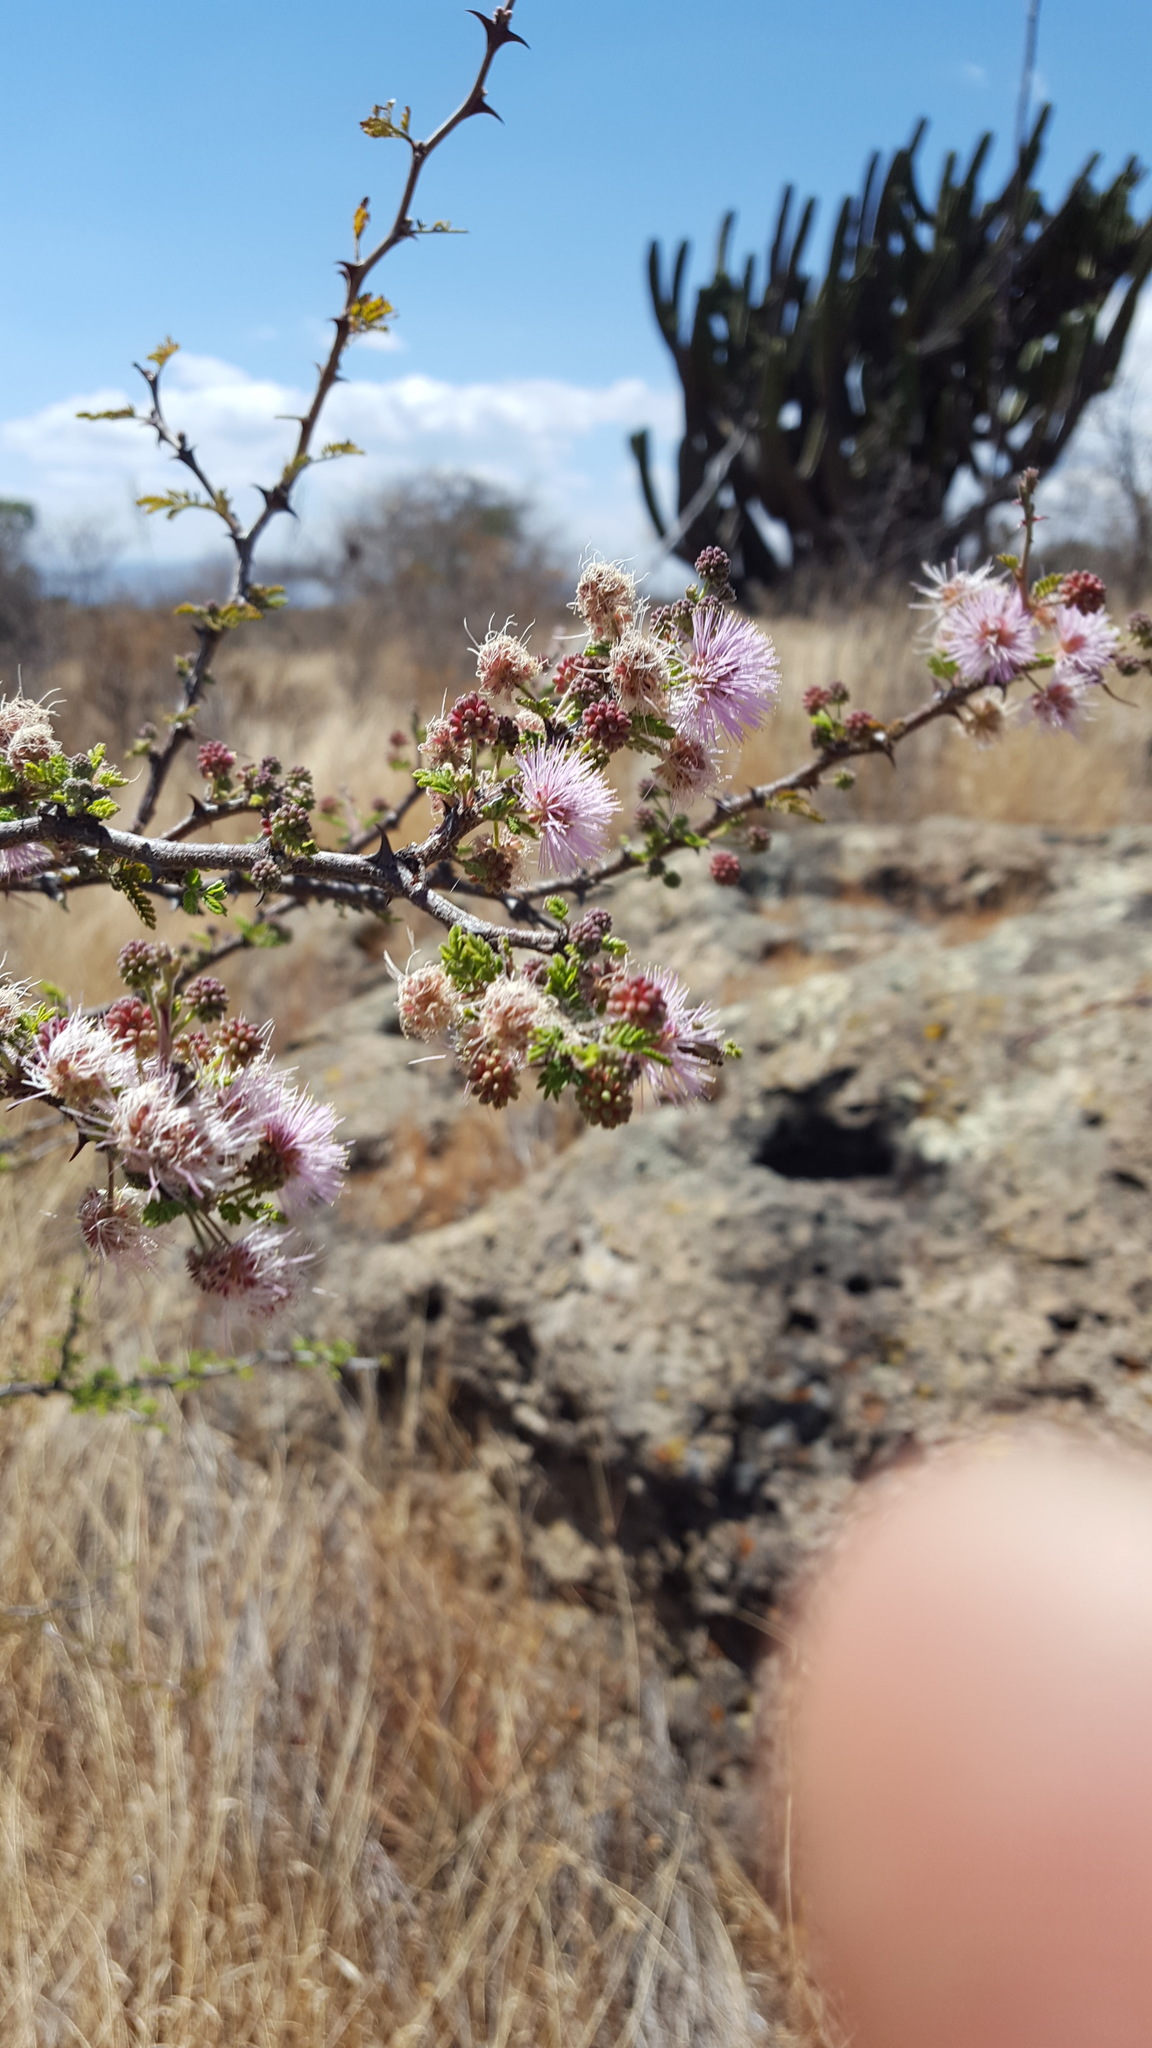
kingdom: Plantae
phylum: Tracheophyta
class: Magnoliopsida
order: Fabales
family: Fabaceae
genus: Mimosa
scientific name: Mimosa biuncifera
